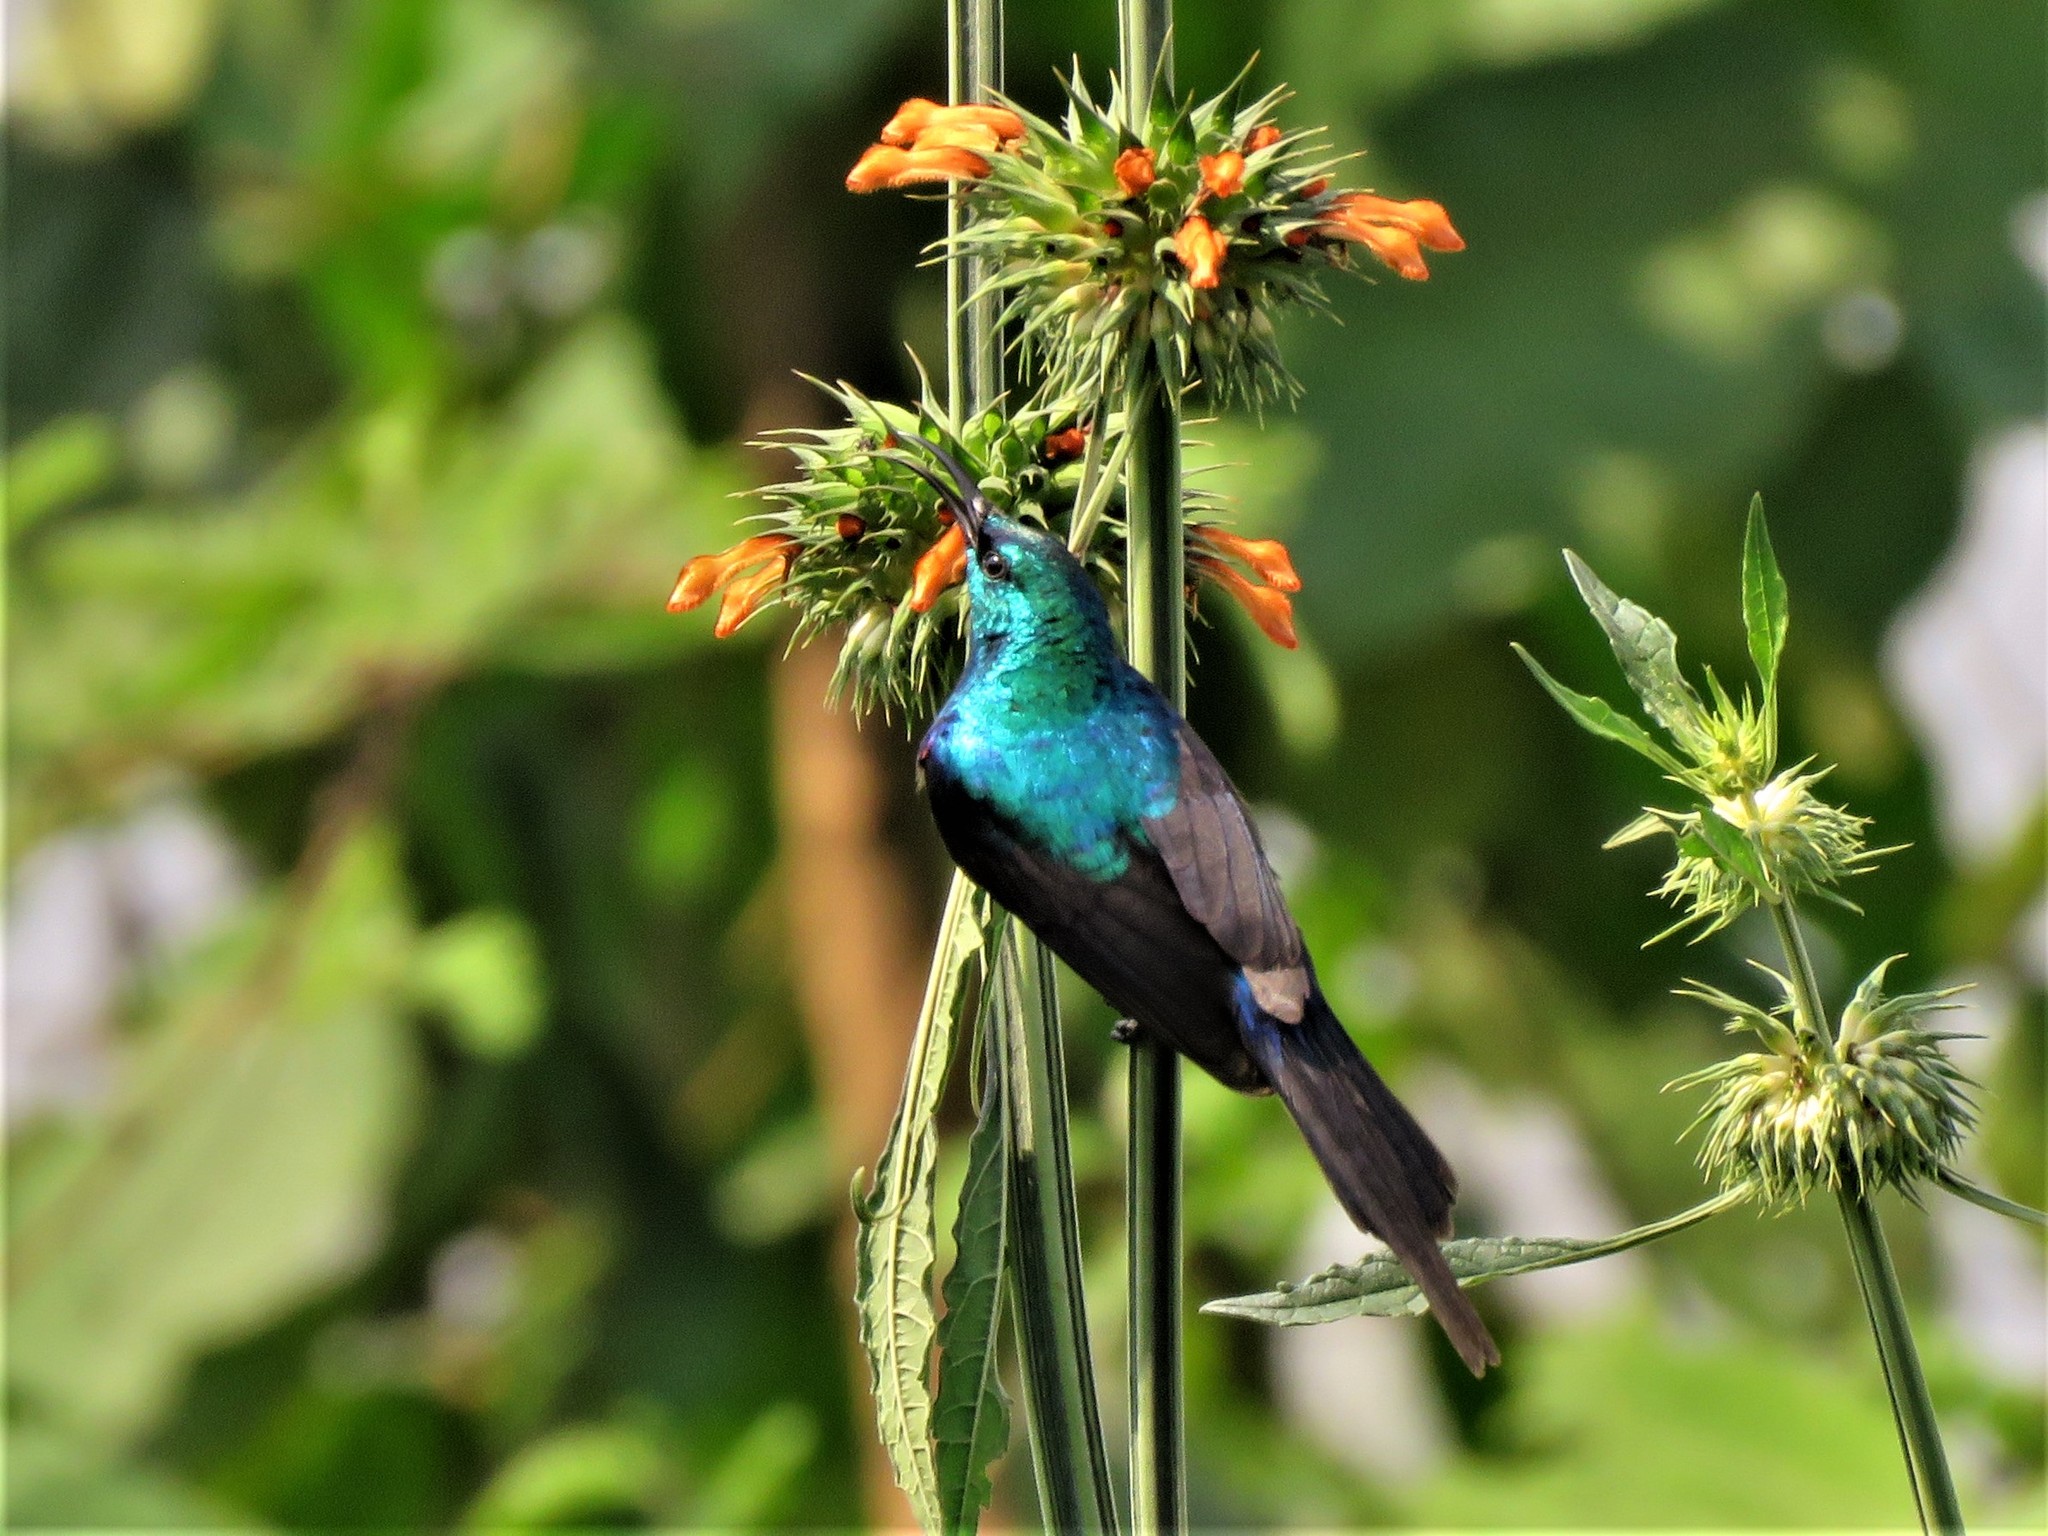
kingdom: Animalia
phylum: Chordata
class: Aves
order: Passeriformes
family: Nectariniidae
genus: Cinnyris
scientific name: Cinnyris erythrocercus
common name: Red-chested sunbird
